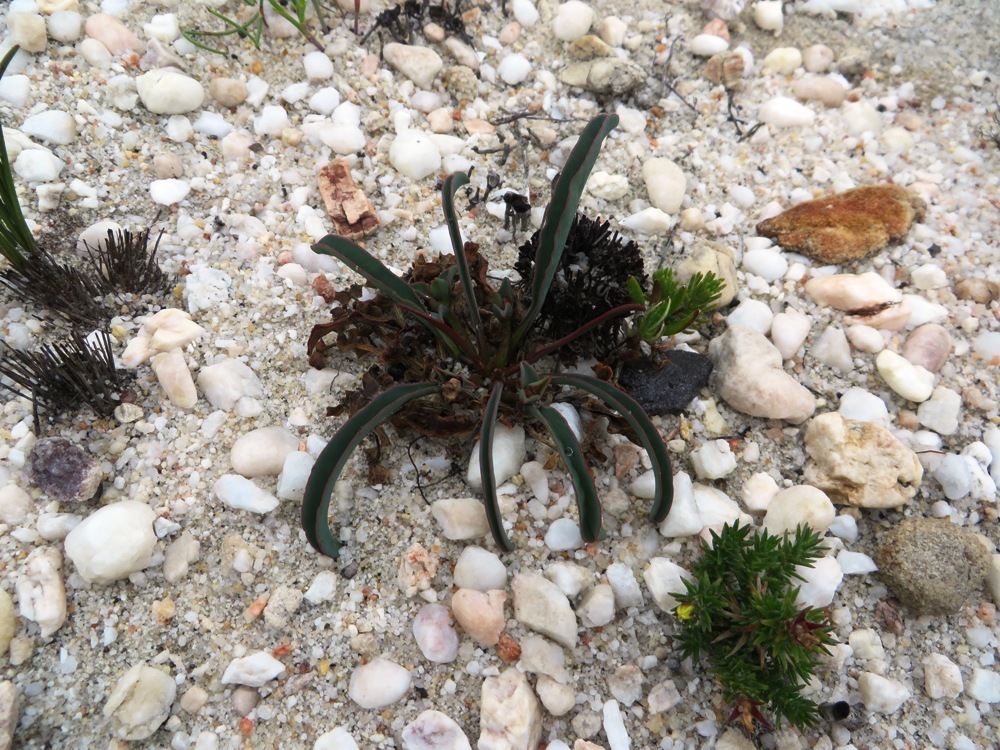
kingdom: Plantae
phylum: Tracheophyta
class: Magnoliopsida
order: Malpighiales
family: Euphorbiaceae
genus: Euphorbia
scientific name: Euphorbia silenifolia
